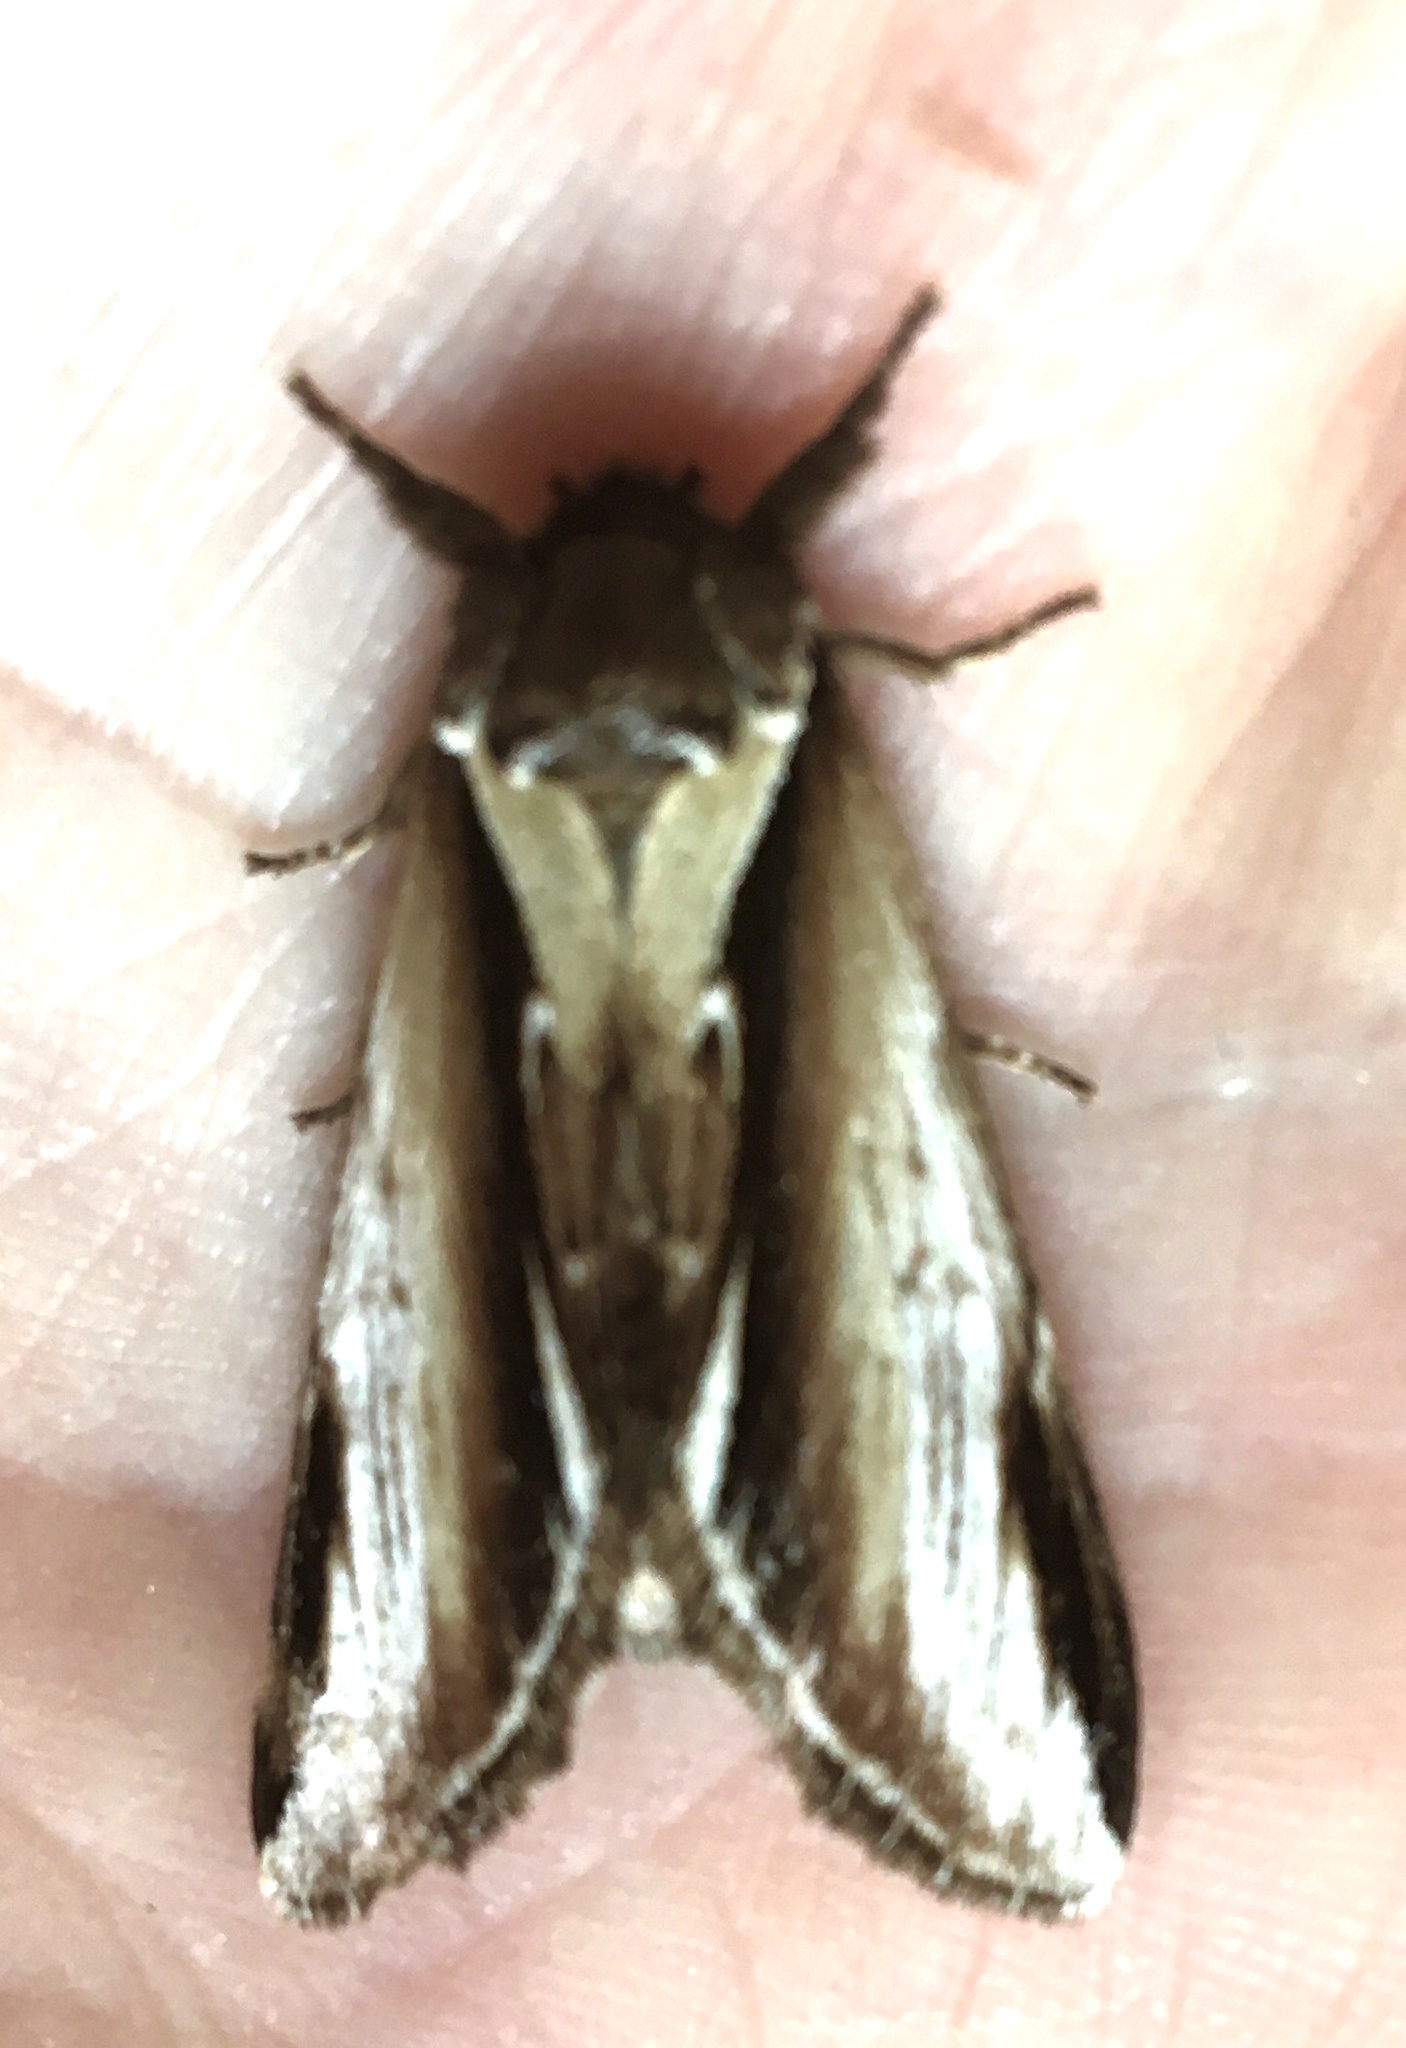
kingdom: Animalia
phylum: Arthropoda
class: Insecta
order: Lepidoptera
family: Notodontidae
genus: Pheosia
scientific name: Pheosia gnoma
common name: Lesser swallow prominent
